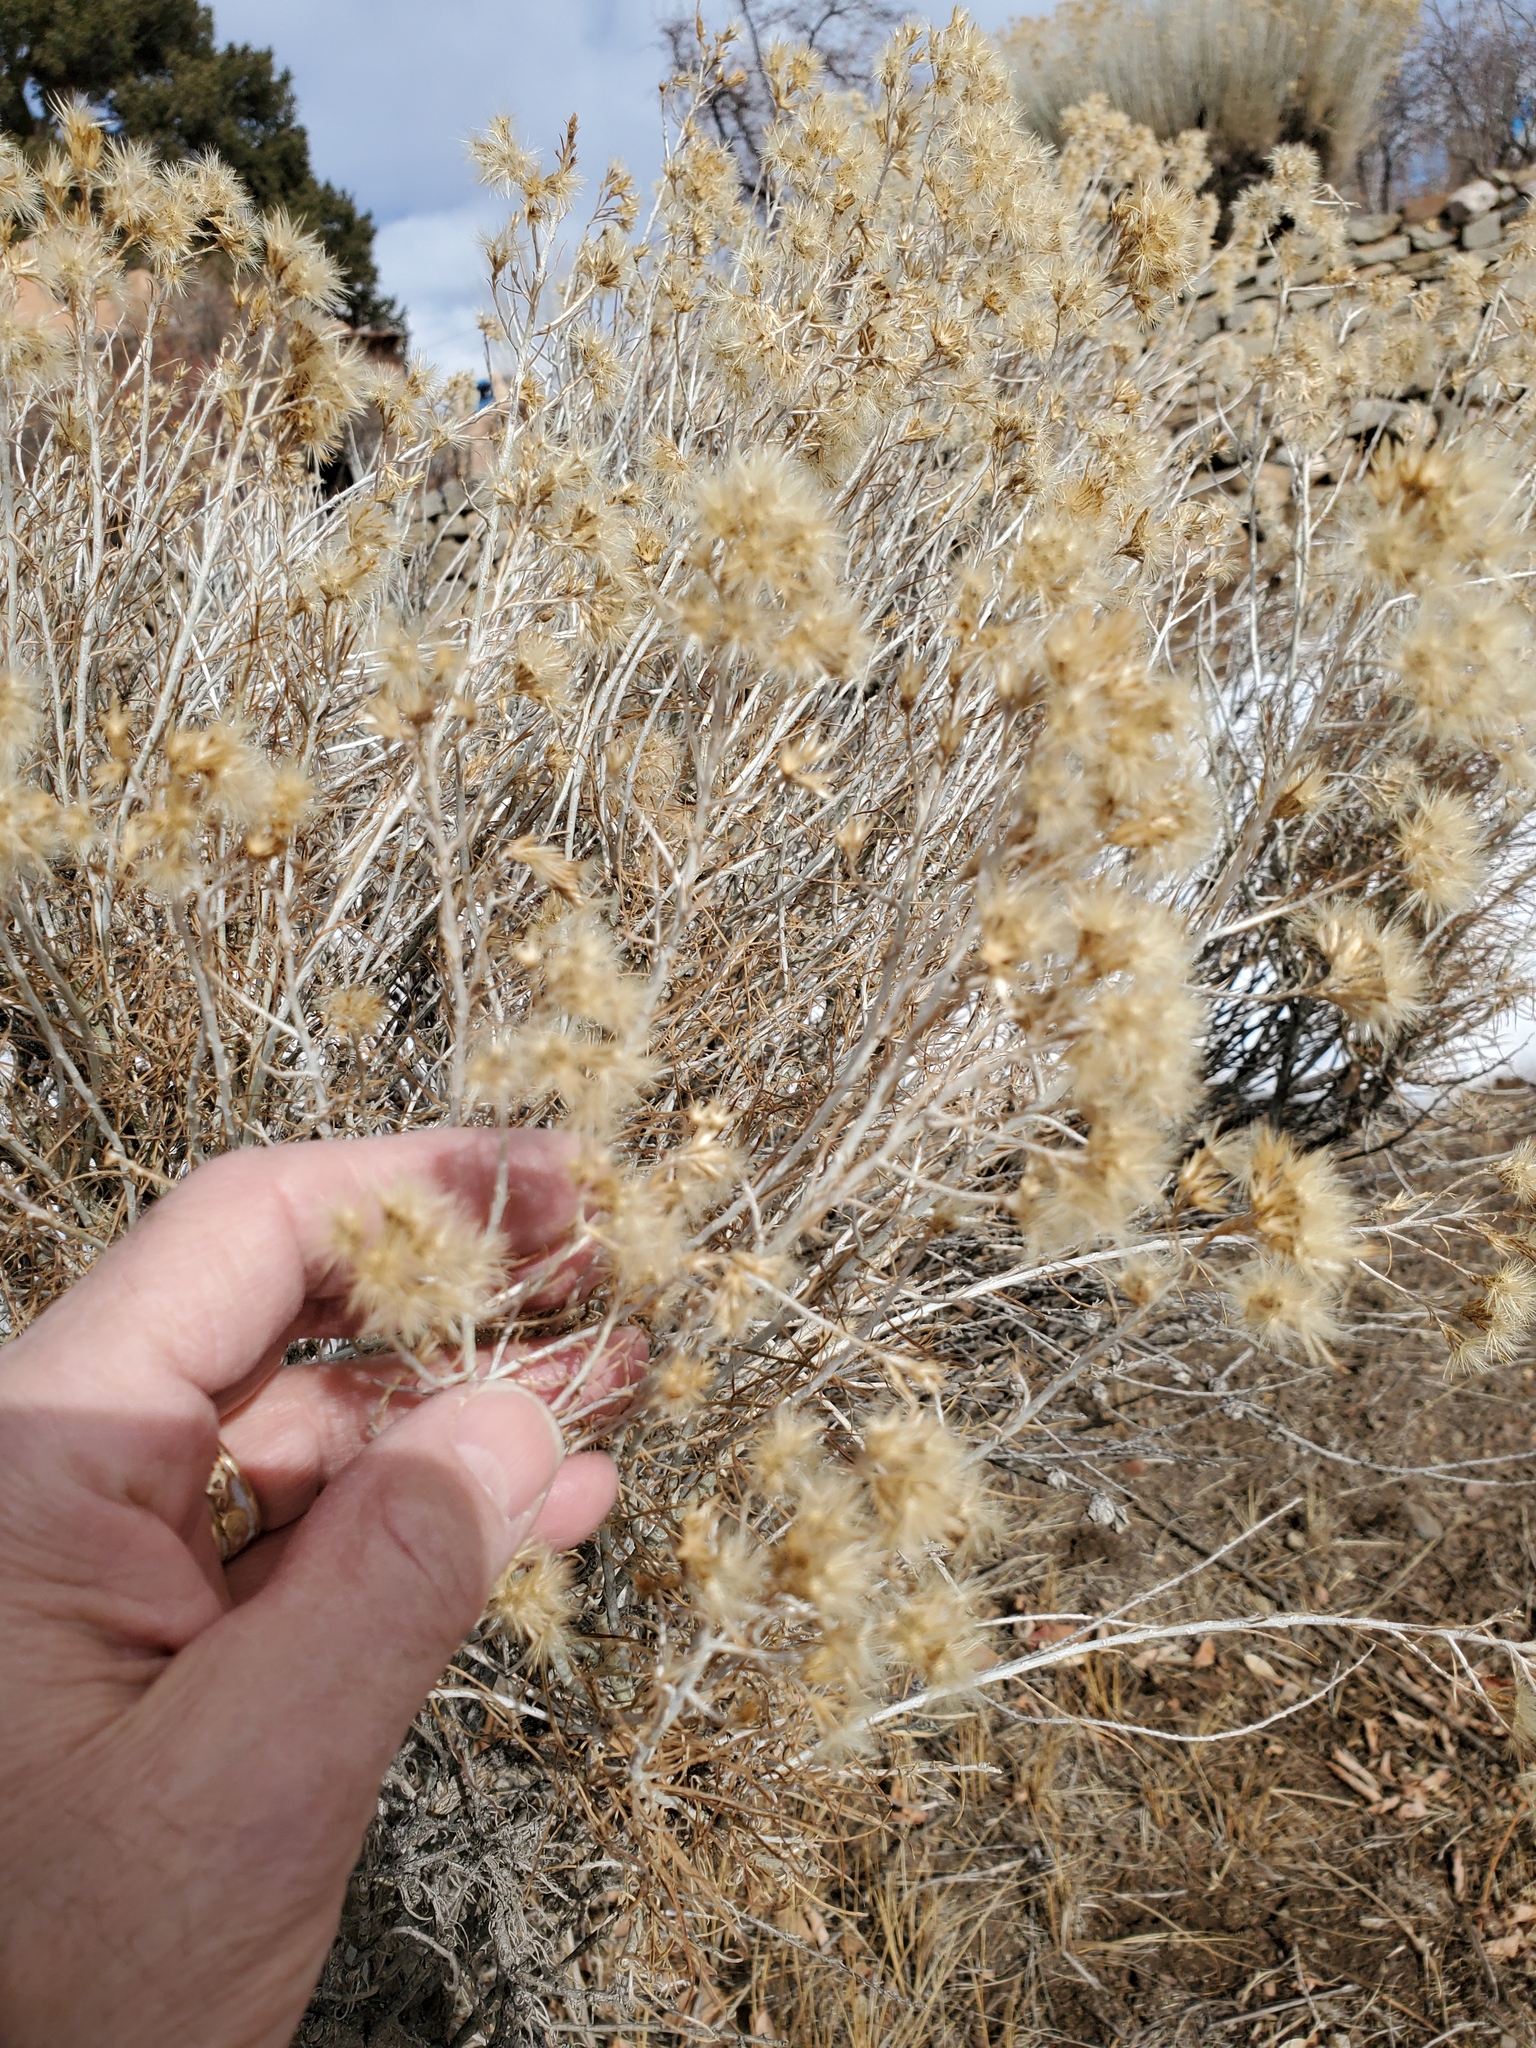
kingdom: Plantae
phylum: Tracheophyta
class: Magnoliopsida
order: Asterales
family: Asteraceae
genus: Ericameria
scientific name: Ericameria nauseosa
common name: Rubber rabbitbrush
